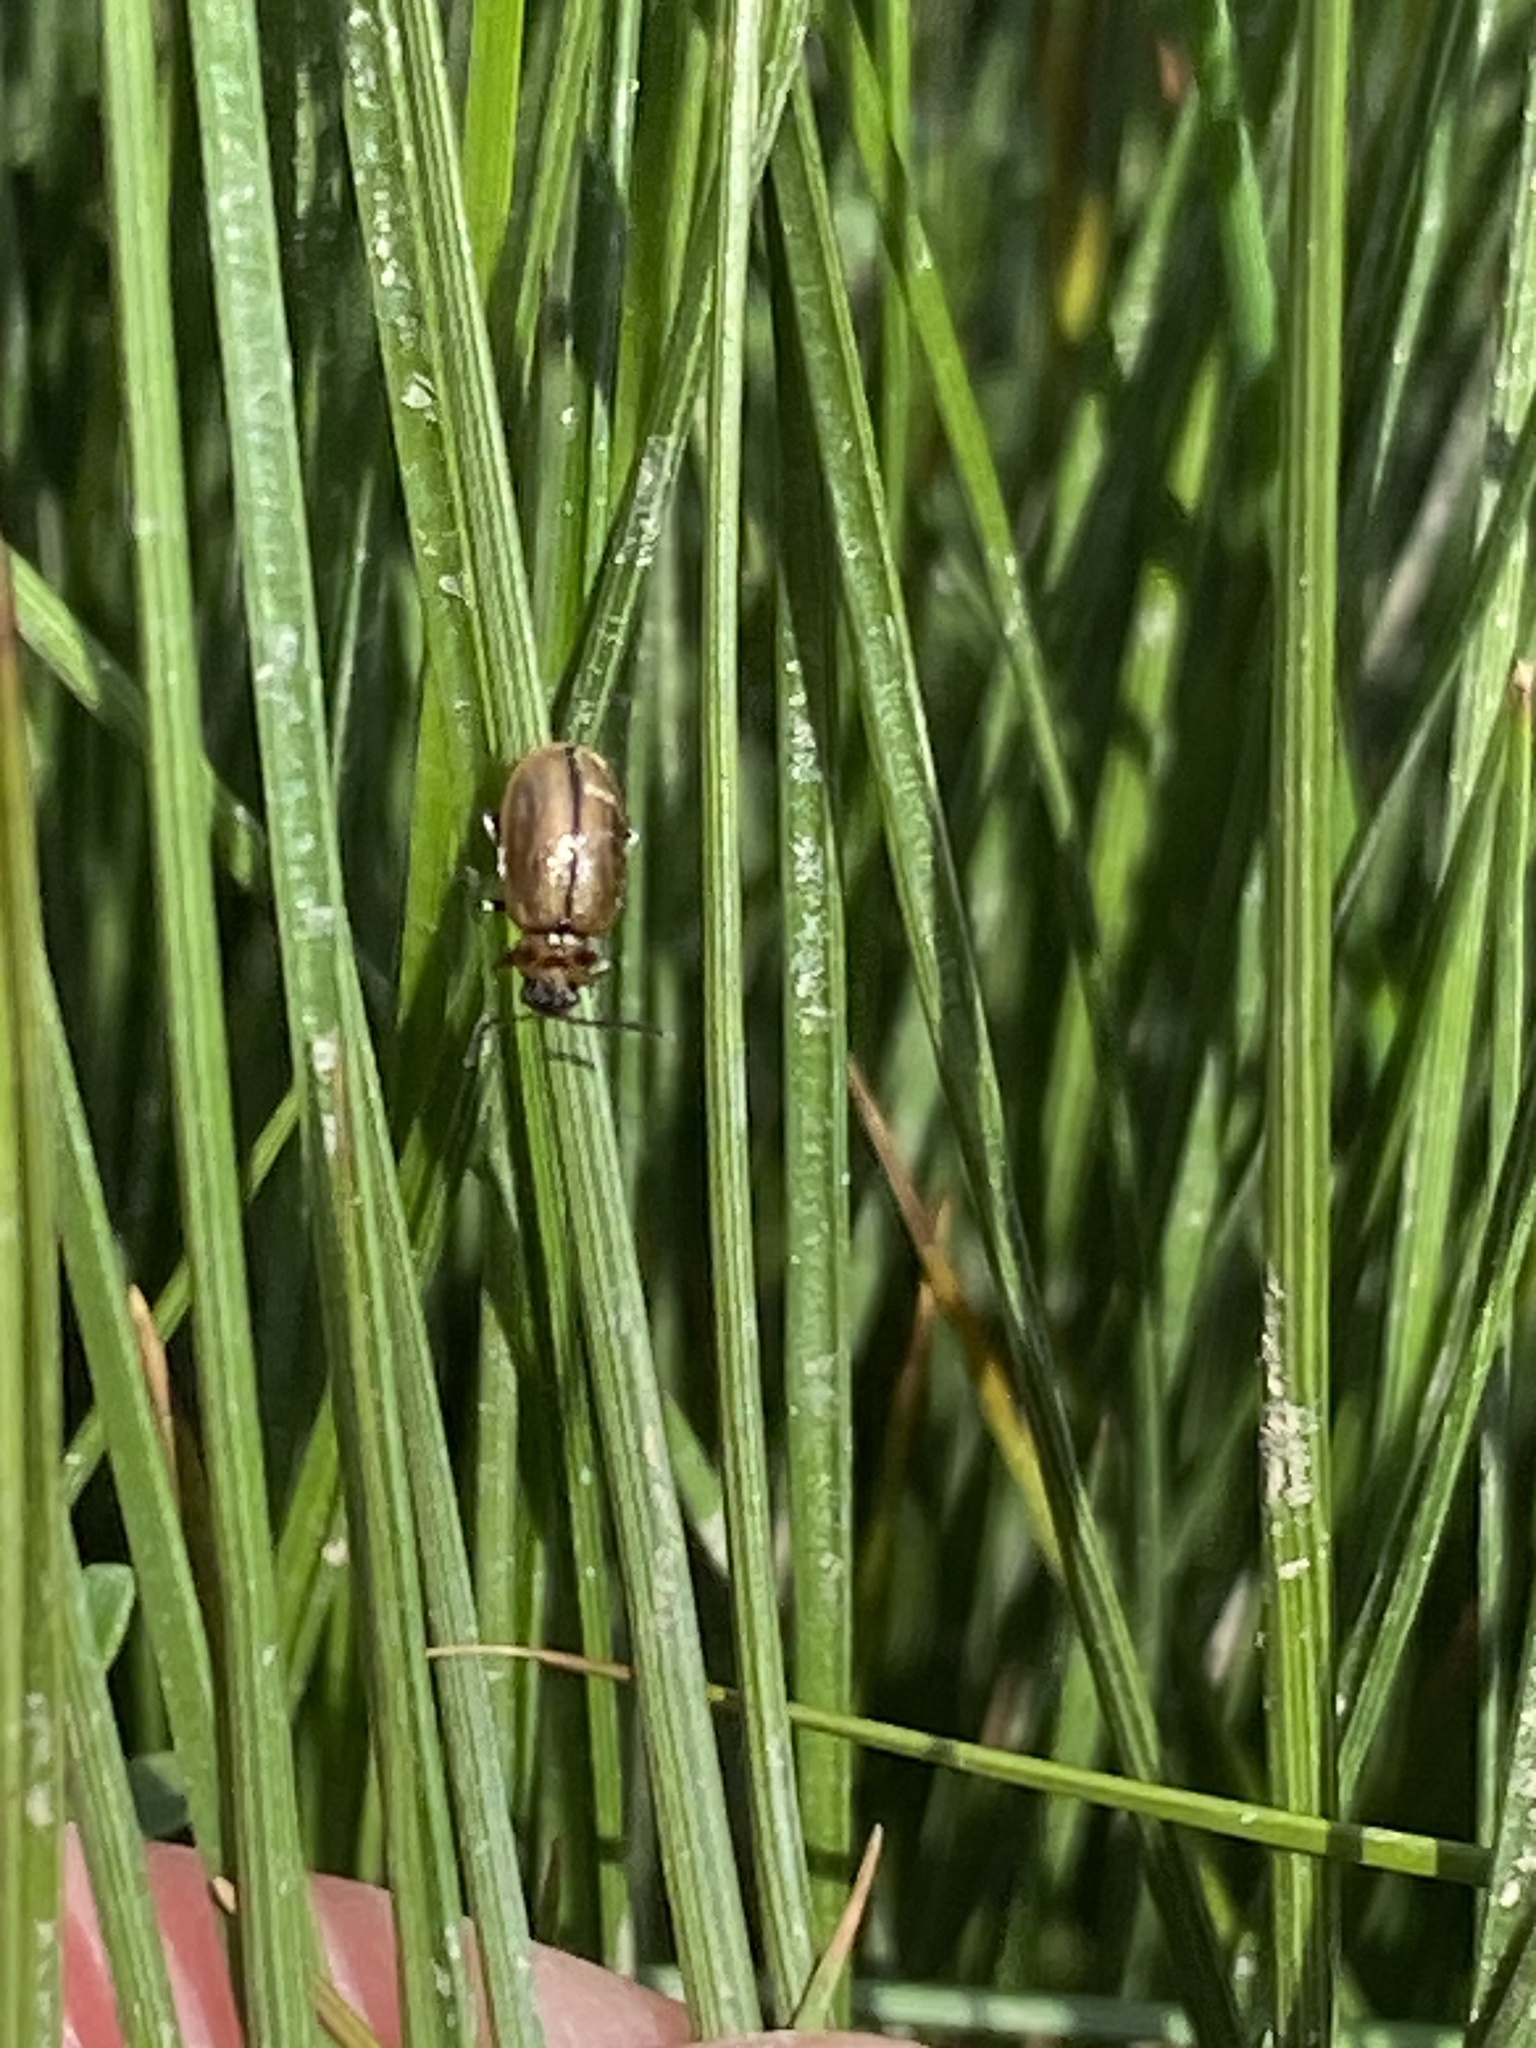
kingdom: Animalia
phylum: Arthropoda
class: Insecta
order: Coleoptera
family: Chrysomelidae
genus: Lochmaea
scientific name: Lochmaea suturalis
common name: Heather beetle
